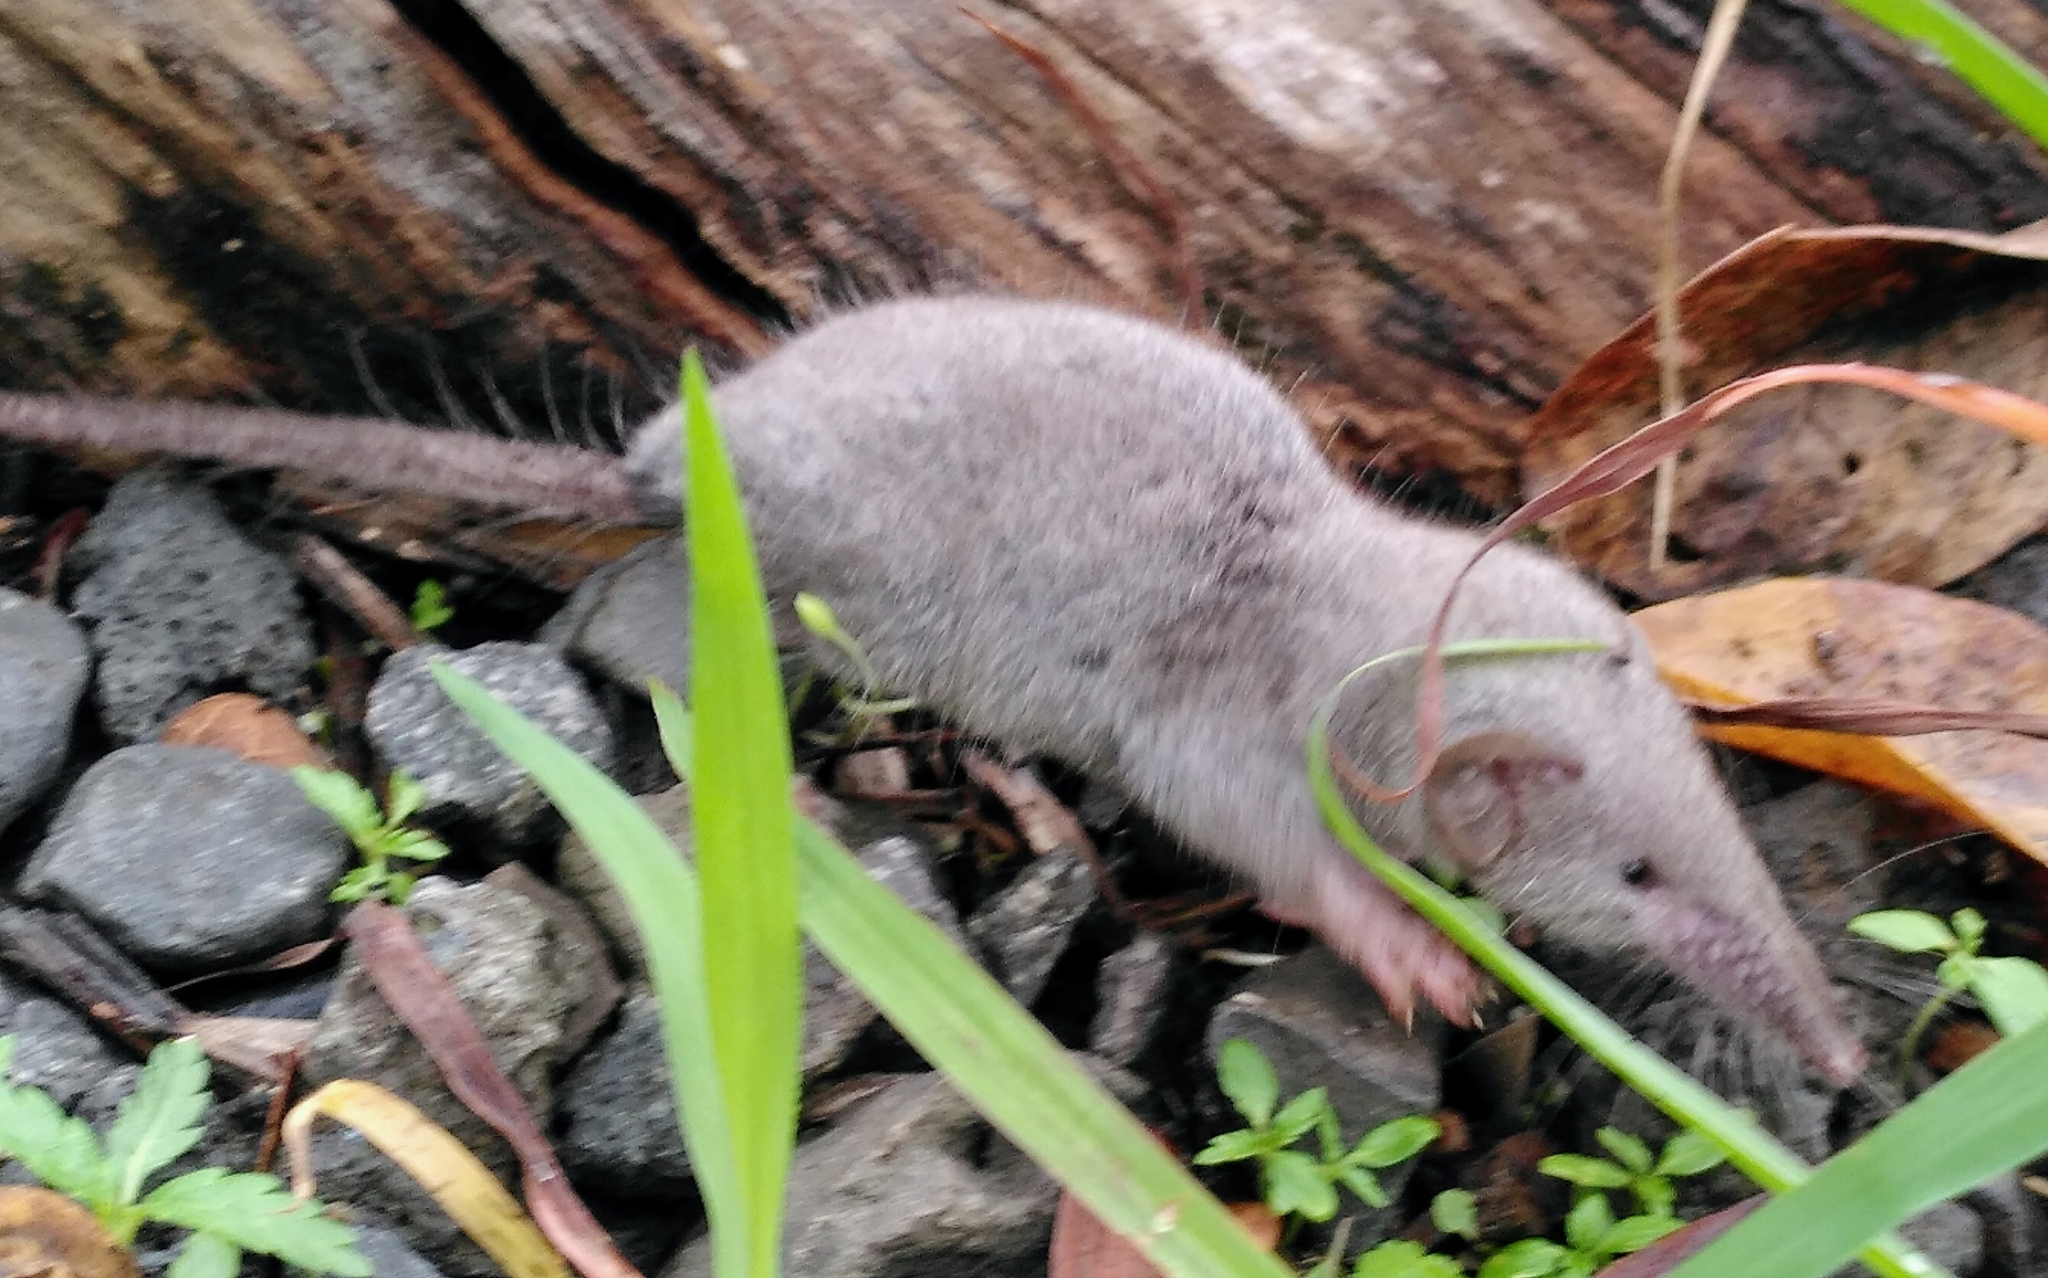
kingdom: Animalia
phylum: Chordata
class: Mammalia
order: Soricomorpha
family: Soricidae
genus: Suncus
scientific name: Suncus murinus
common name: Asian house shrew
